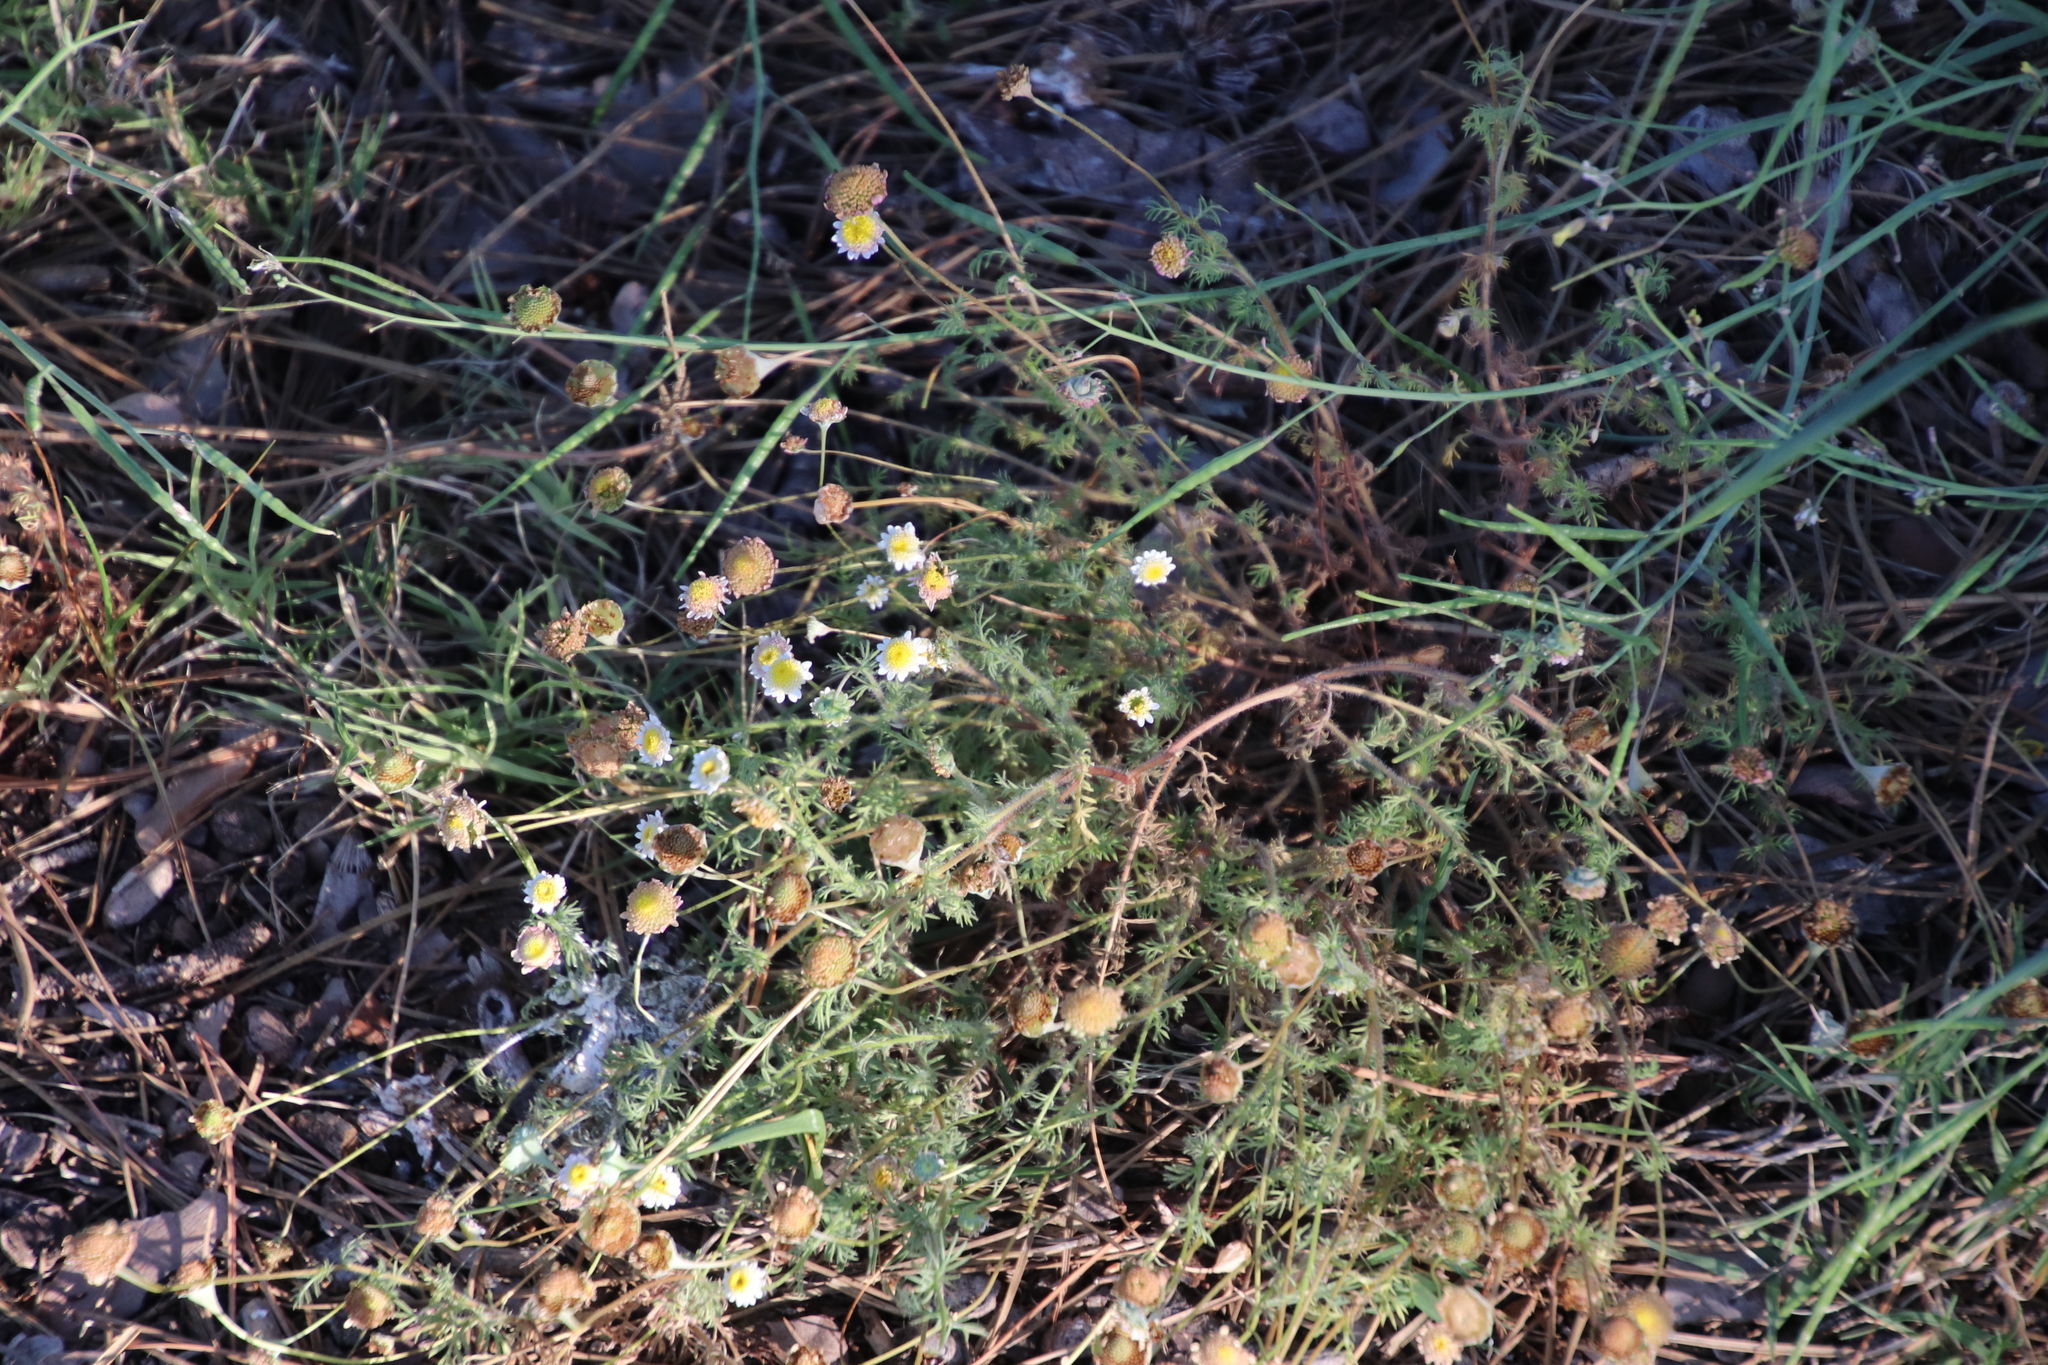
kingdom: Plantae
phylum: Tracheophyta
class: Magnoliopsida
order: Asterales
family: Asteraceae
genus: Cotula
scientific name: Cotula turbinata
